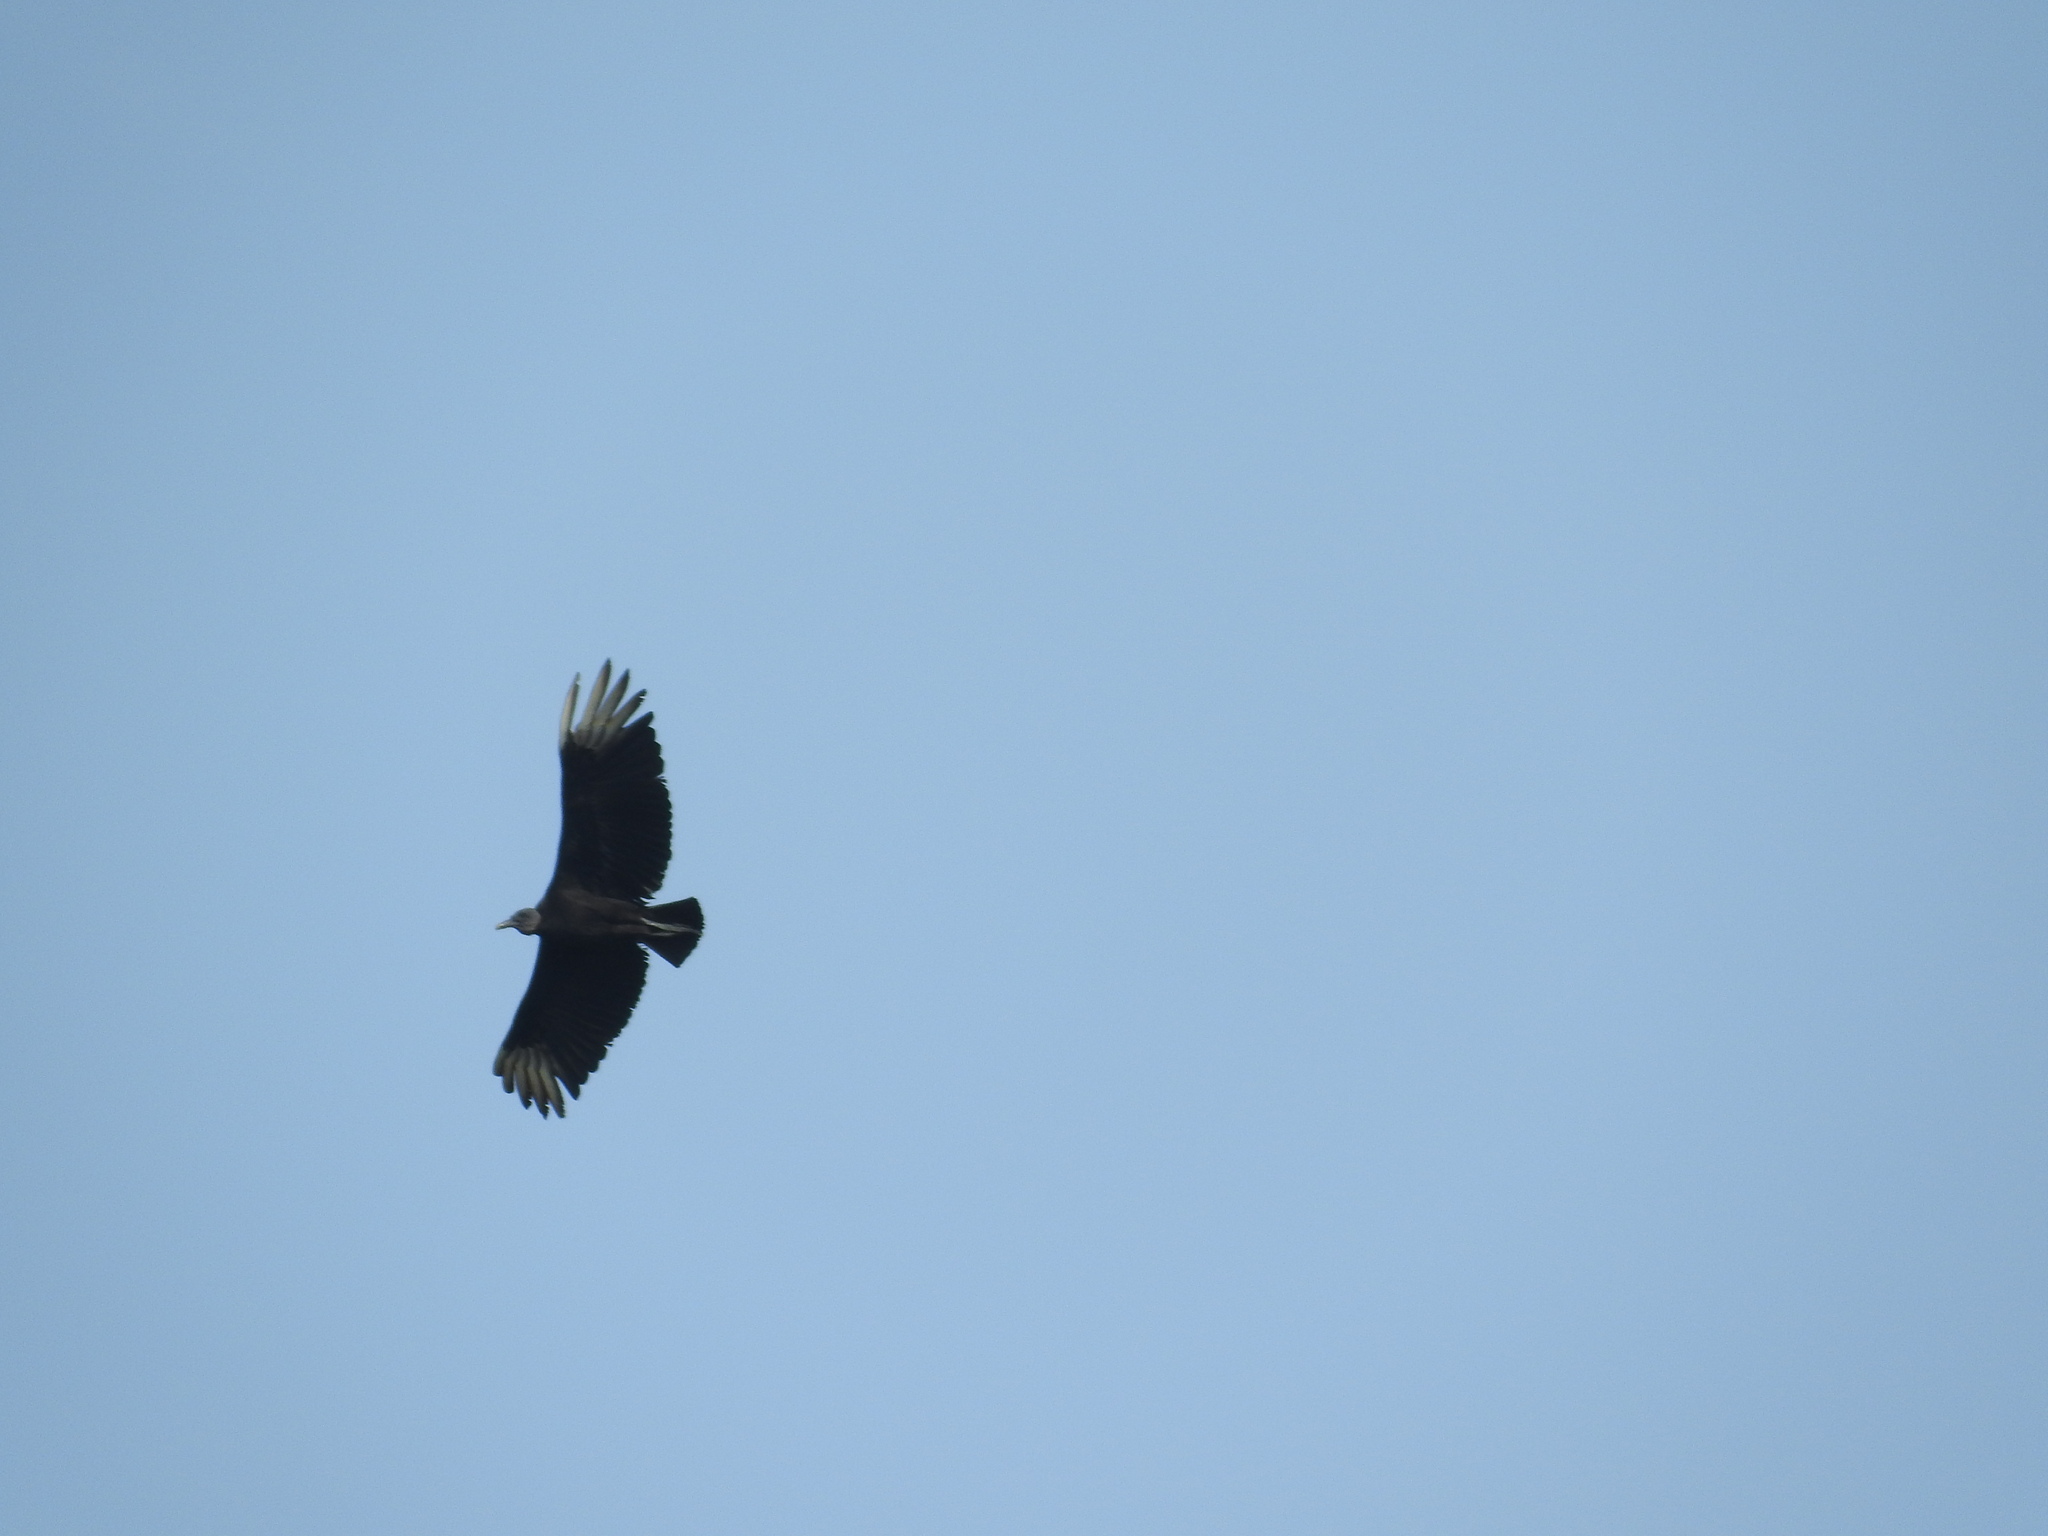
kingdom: Animalia
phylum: Chordata
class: Aves
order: Accipitriformes
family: Cathartidae
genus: Coragyps
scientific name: Coragyps atratus
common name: Black vulture
